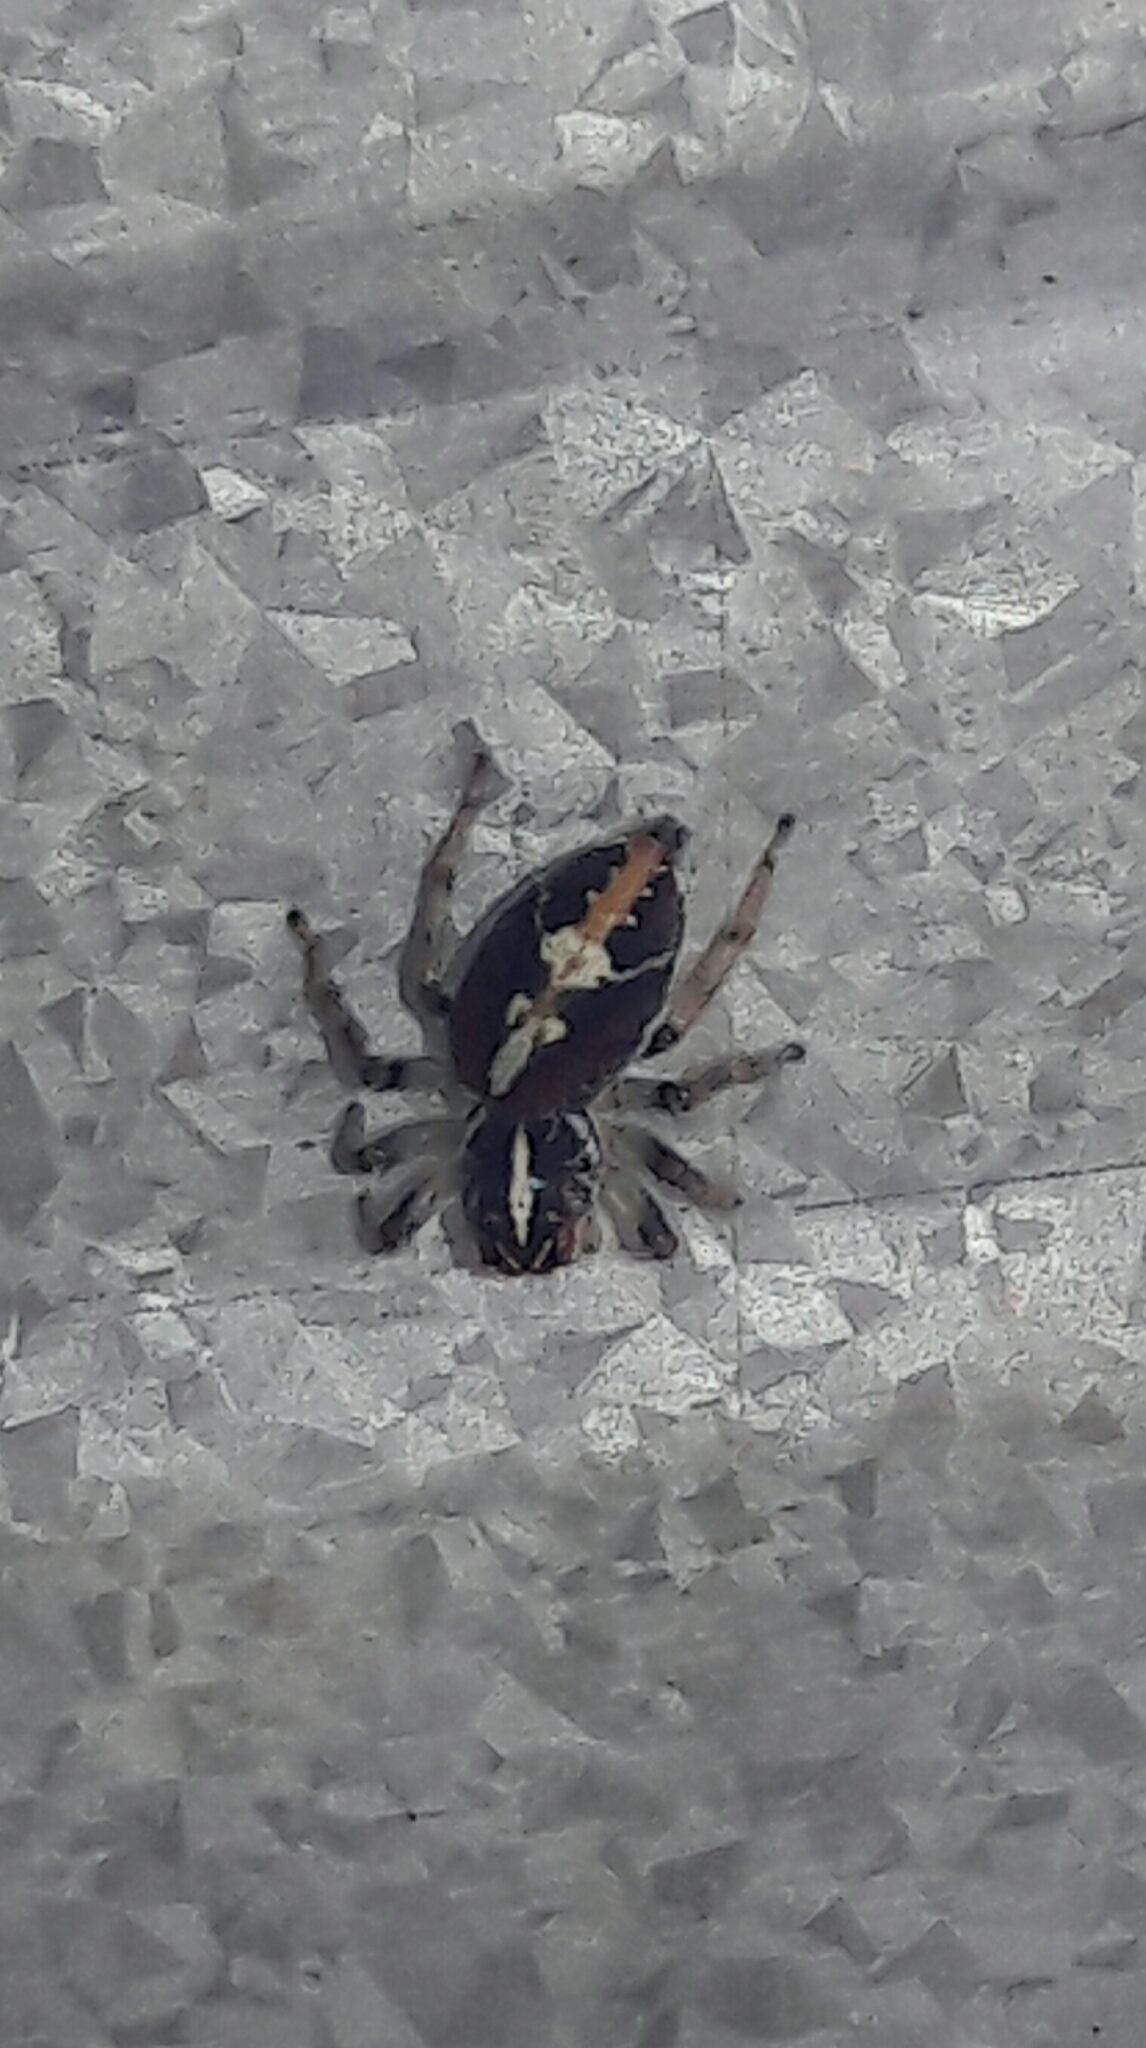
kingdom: Animalia
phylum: Arthropoda
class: Arachnida
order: Araneae
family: Salticidae
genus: Frigga
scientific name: Frigga quintensis
